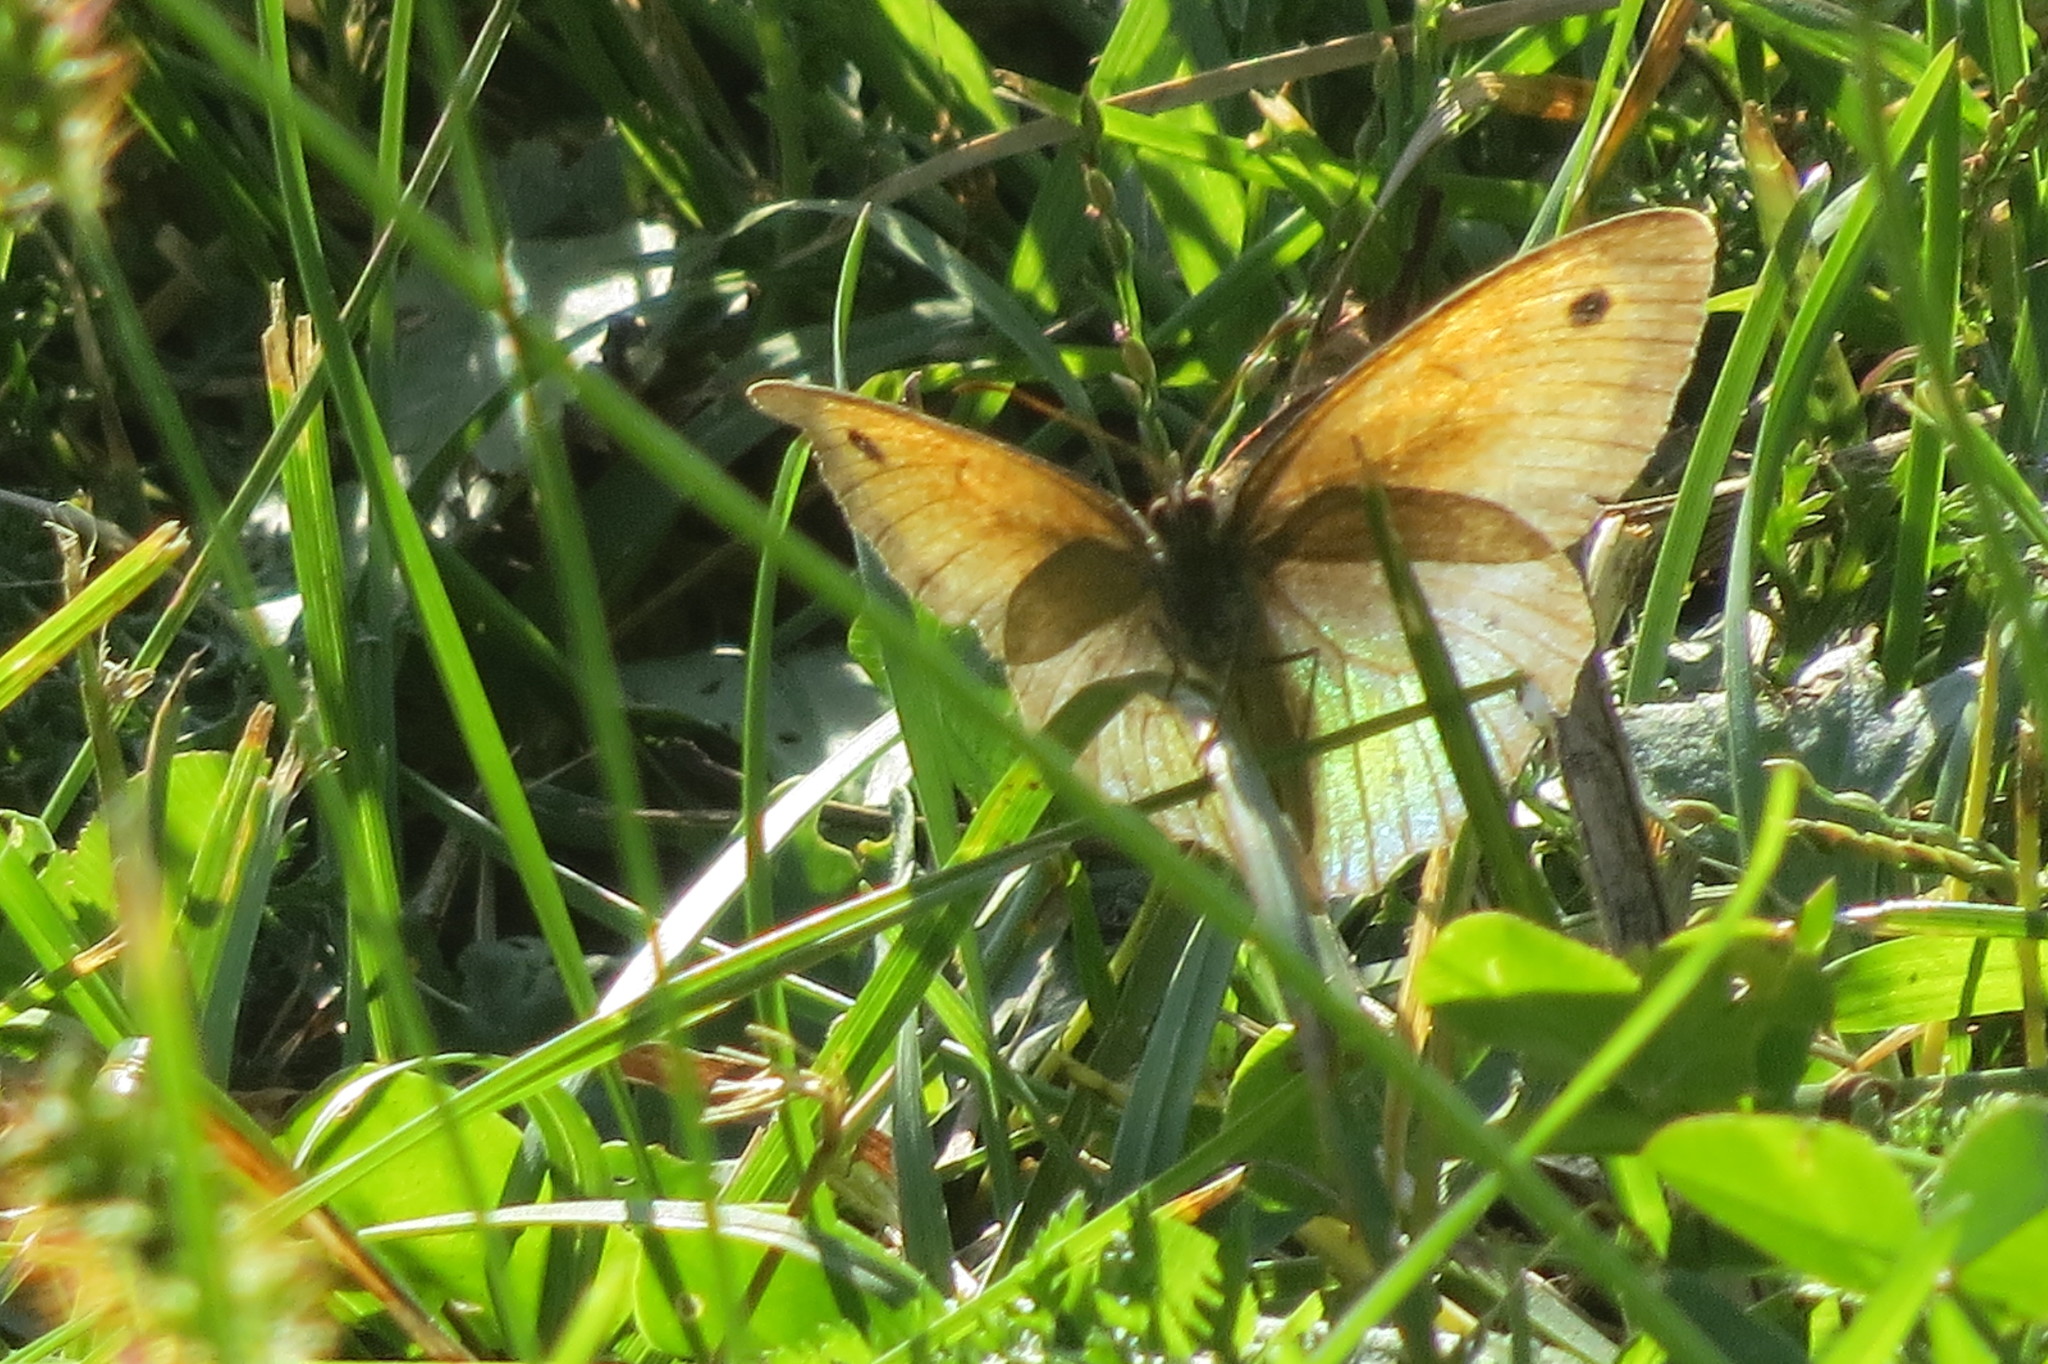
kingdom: Animalia
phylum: Arthropoda
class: Insecta
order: Lepidoptera
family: Nymphalidae
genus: Maniola
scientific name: Maniola jurtina
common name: Meadow brown
